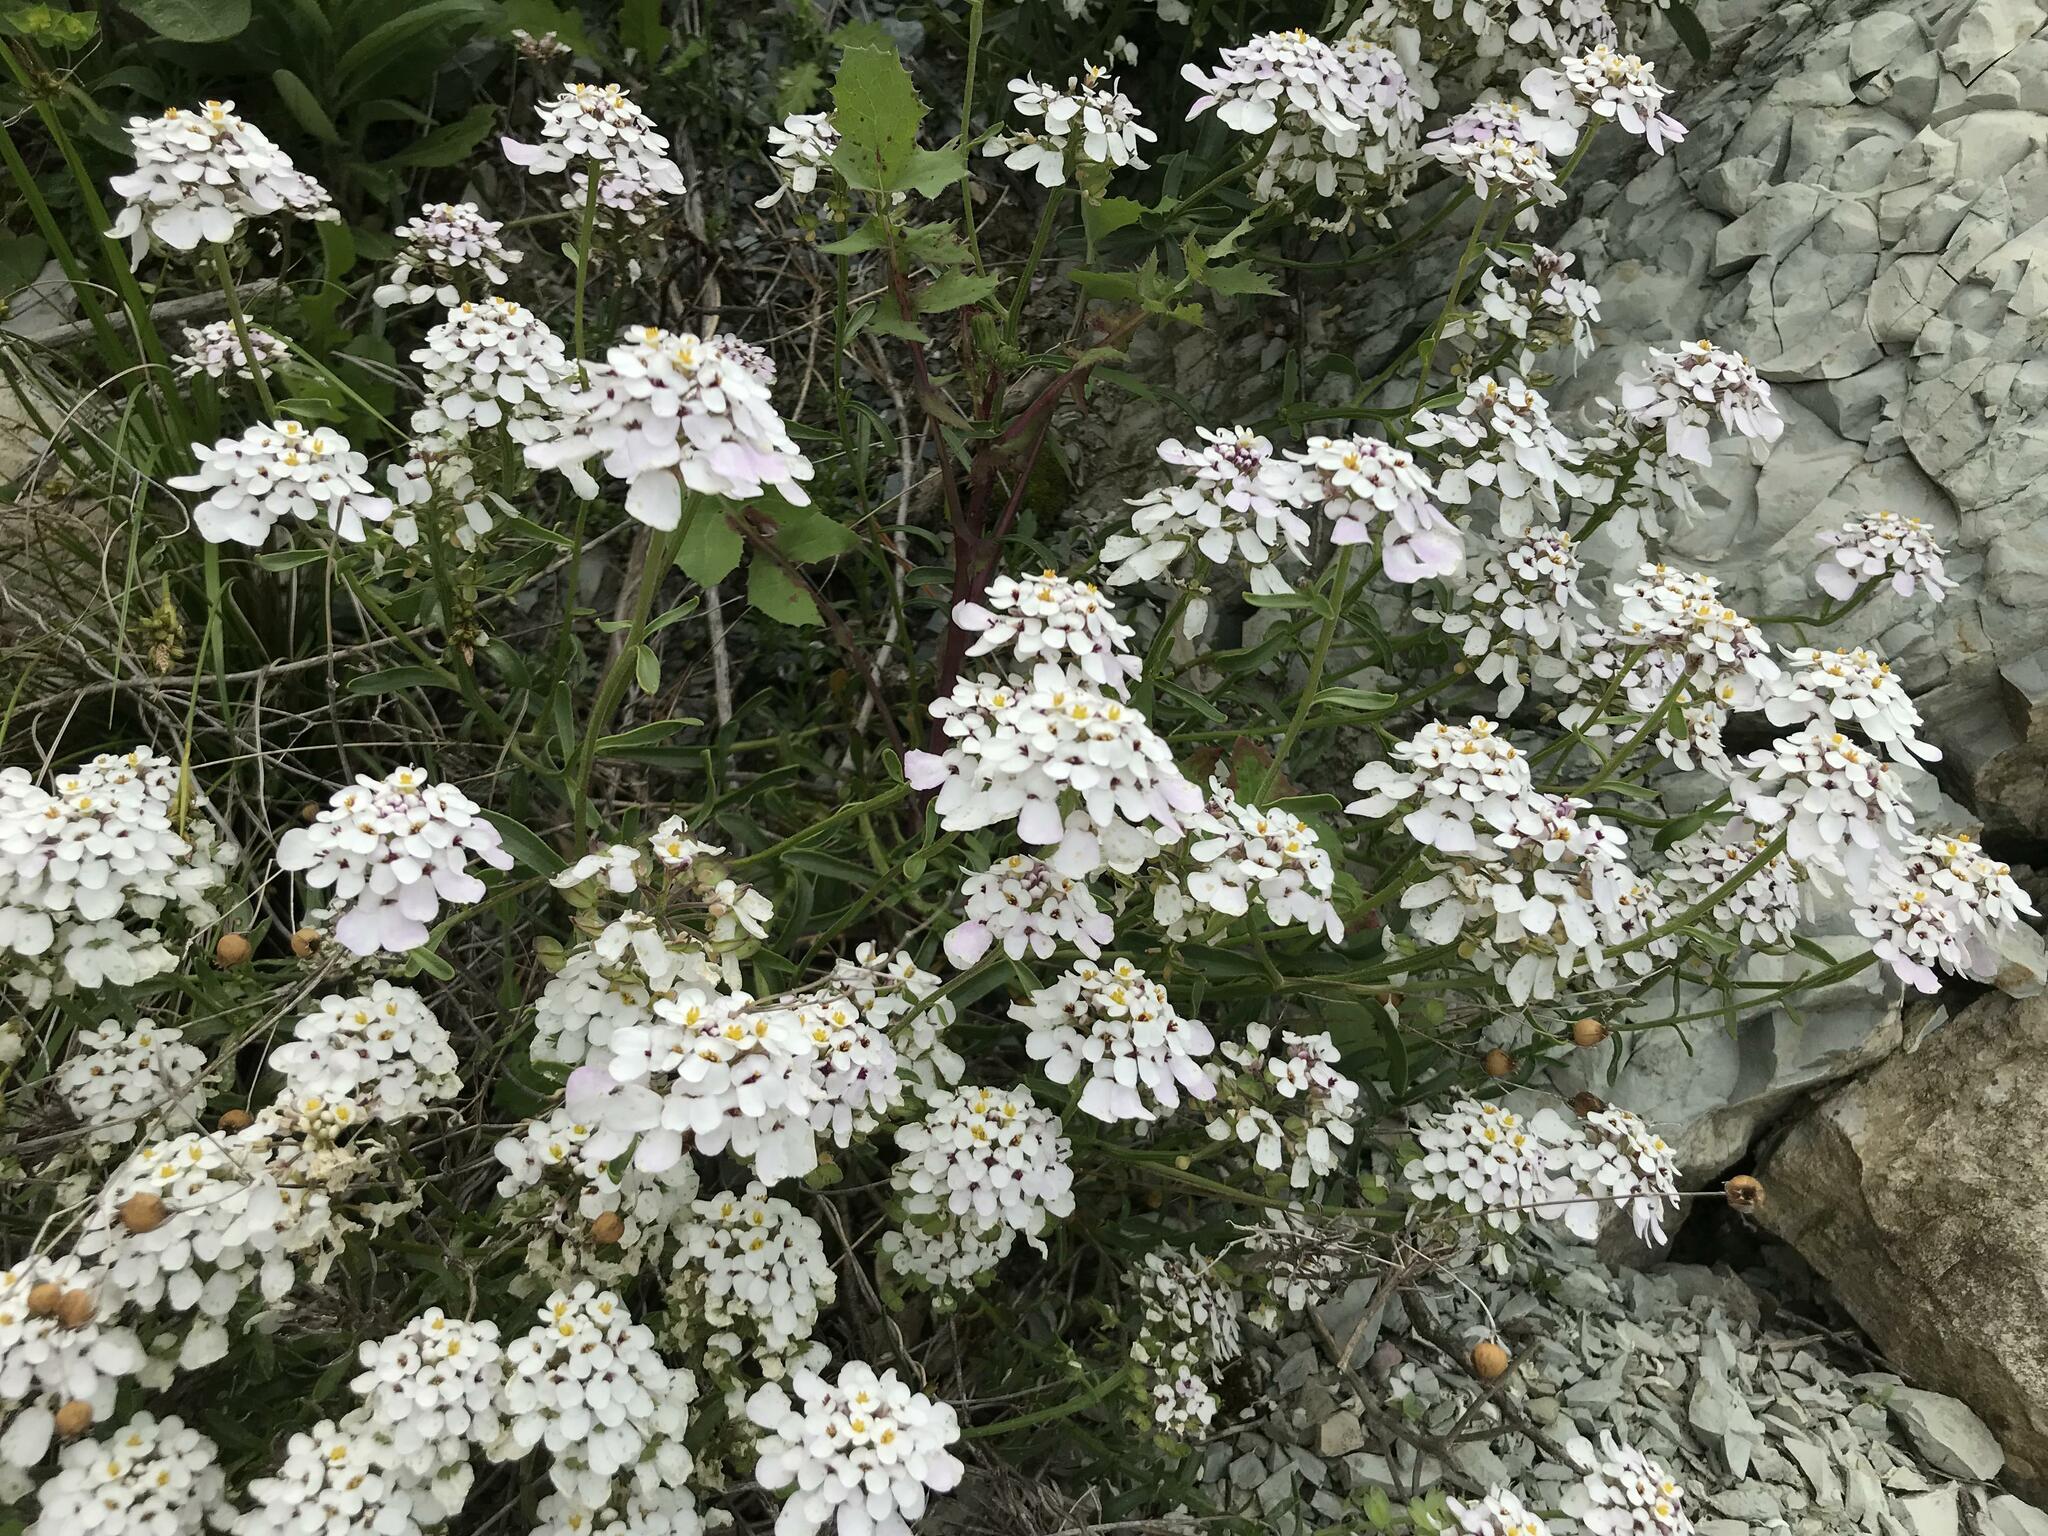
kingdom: Plantae
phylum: Tracheophyta
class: Magnoliopsida
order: Brassicales
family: Brassicaceae
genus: Iberis
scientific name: Iberis simplex
